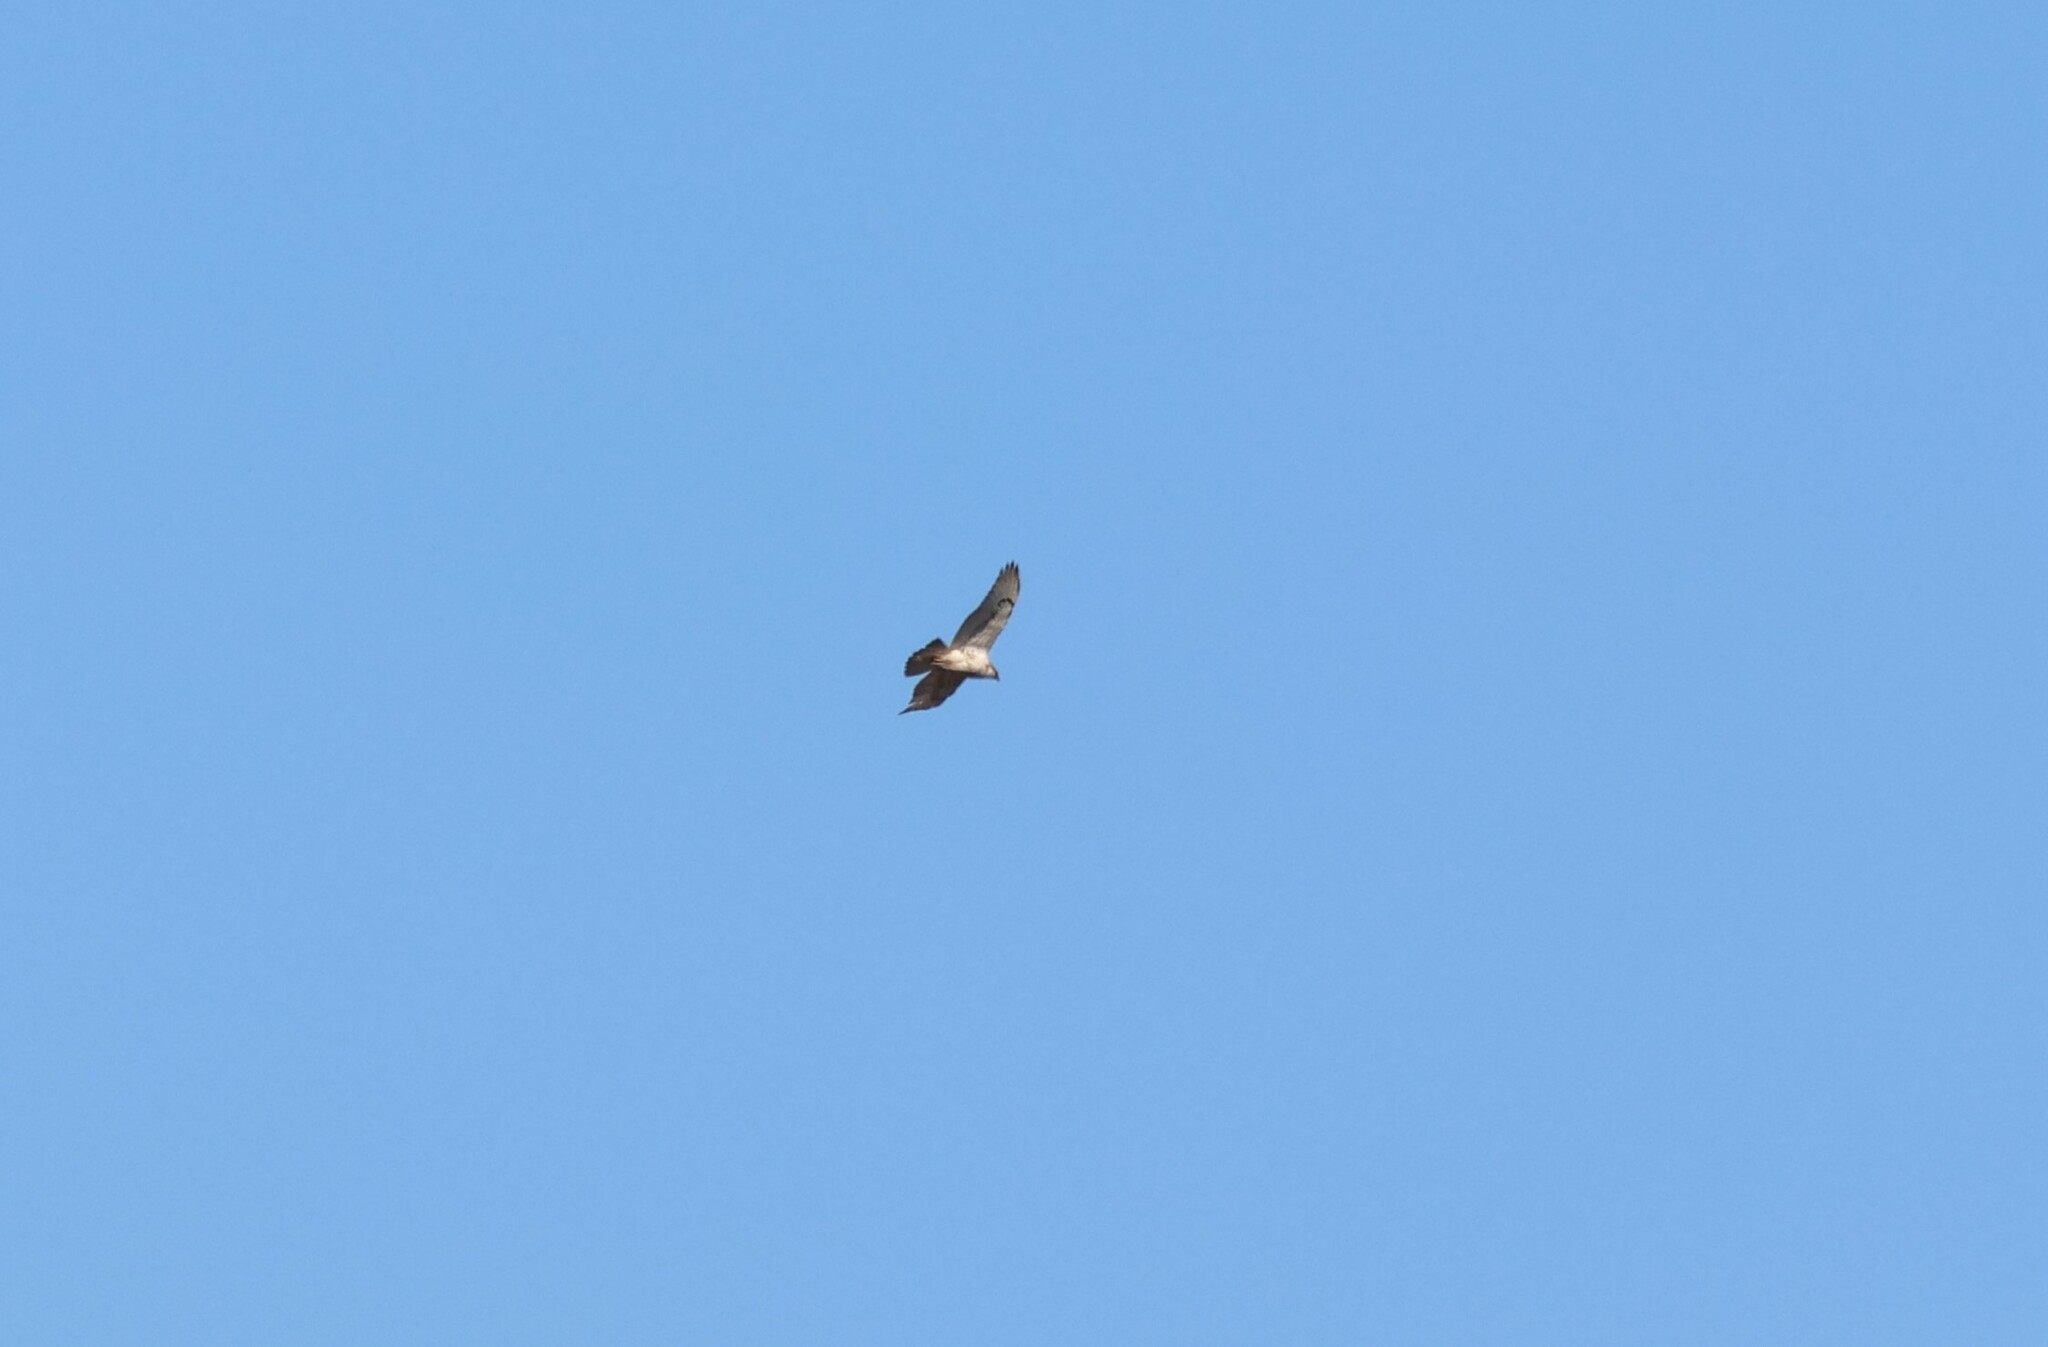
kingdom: Animalia
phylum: Chordata
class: Aves
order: Accipitriformes
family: Accipitridae
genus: Buteo
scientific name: Buteo regalis
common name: Ferruginous hawk
